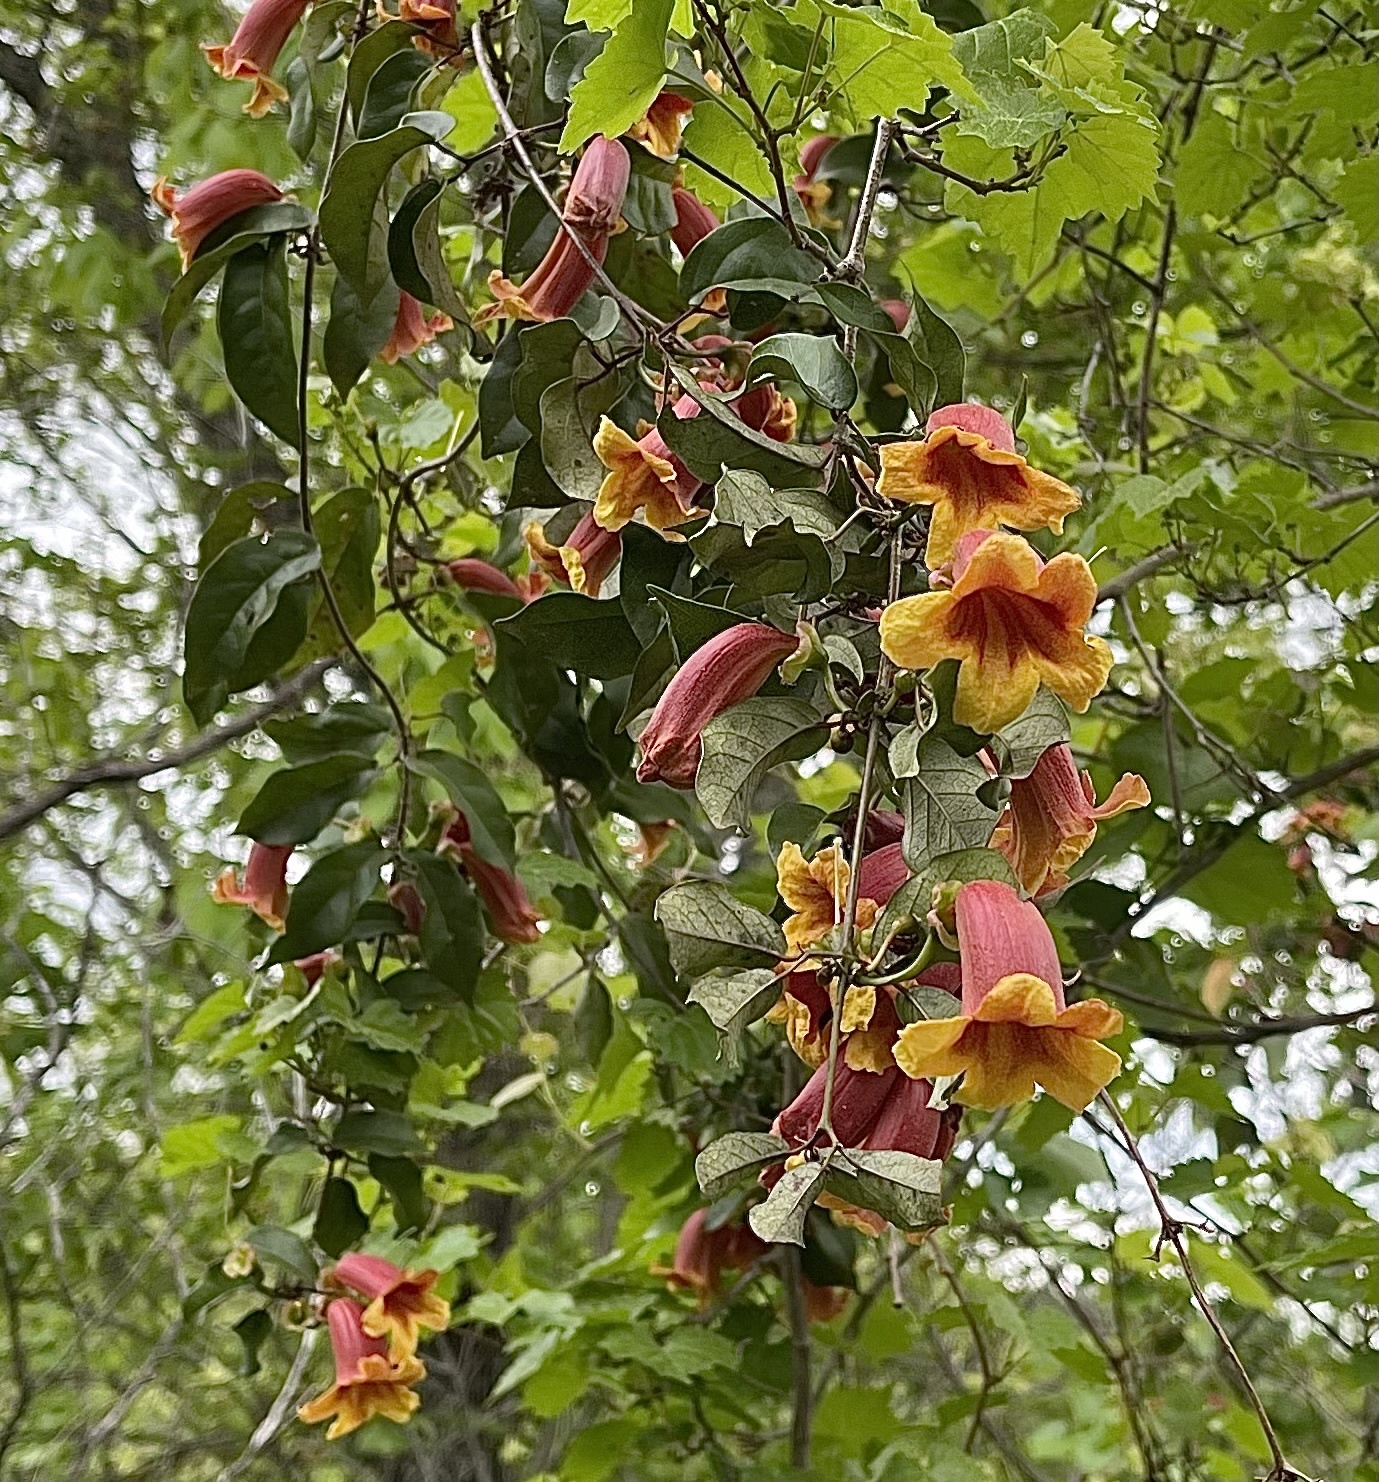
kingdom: Plantae
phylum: Tracheophyta
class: Magnoliopsida
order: Lamiales
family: Bignoniaceae
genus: Bignonia
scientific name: Bignonia capreolata
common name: Crossvine
